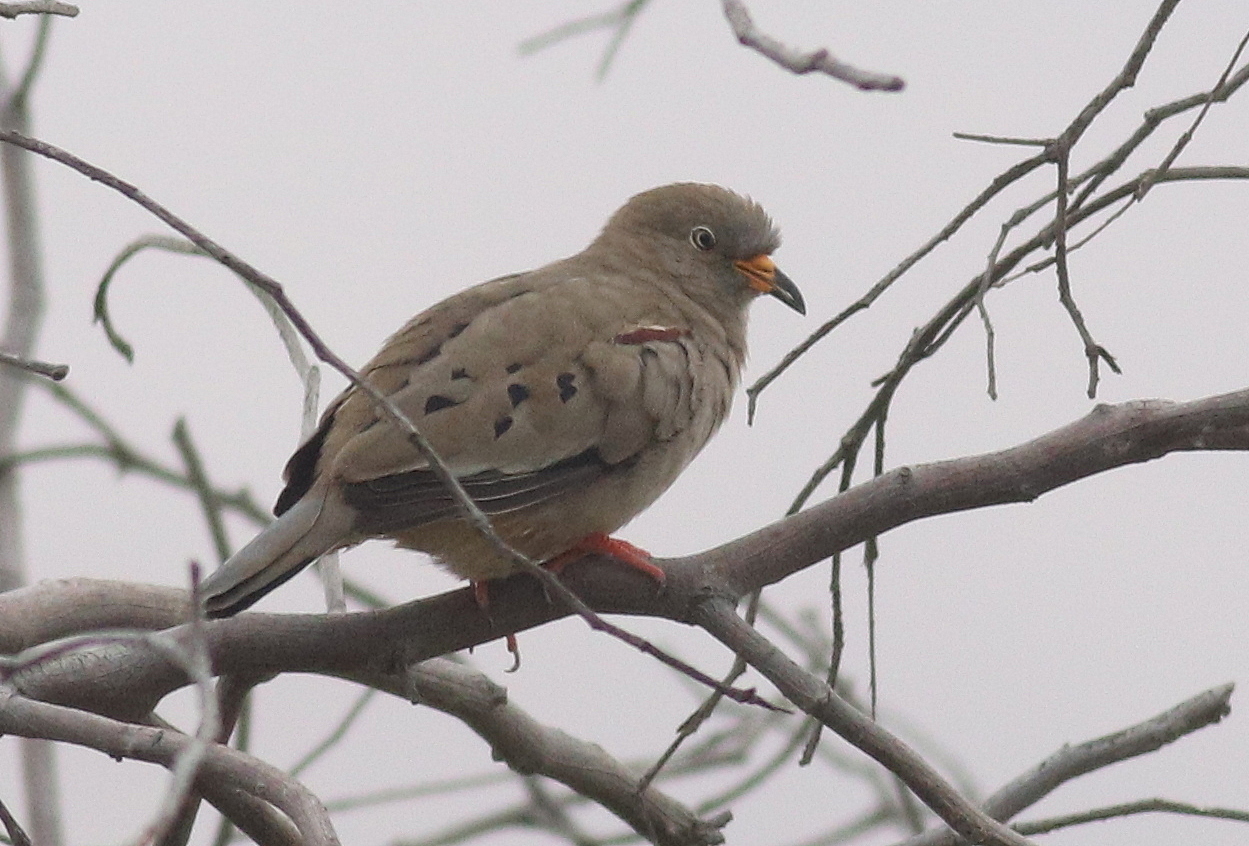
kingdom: Animalia
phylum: Chordata
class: Aves
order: Columbiformes
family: Columbidae
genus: Columbina
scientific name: Columbina cruziana
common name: Croaking ground dove
